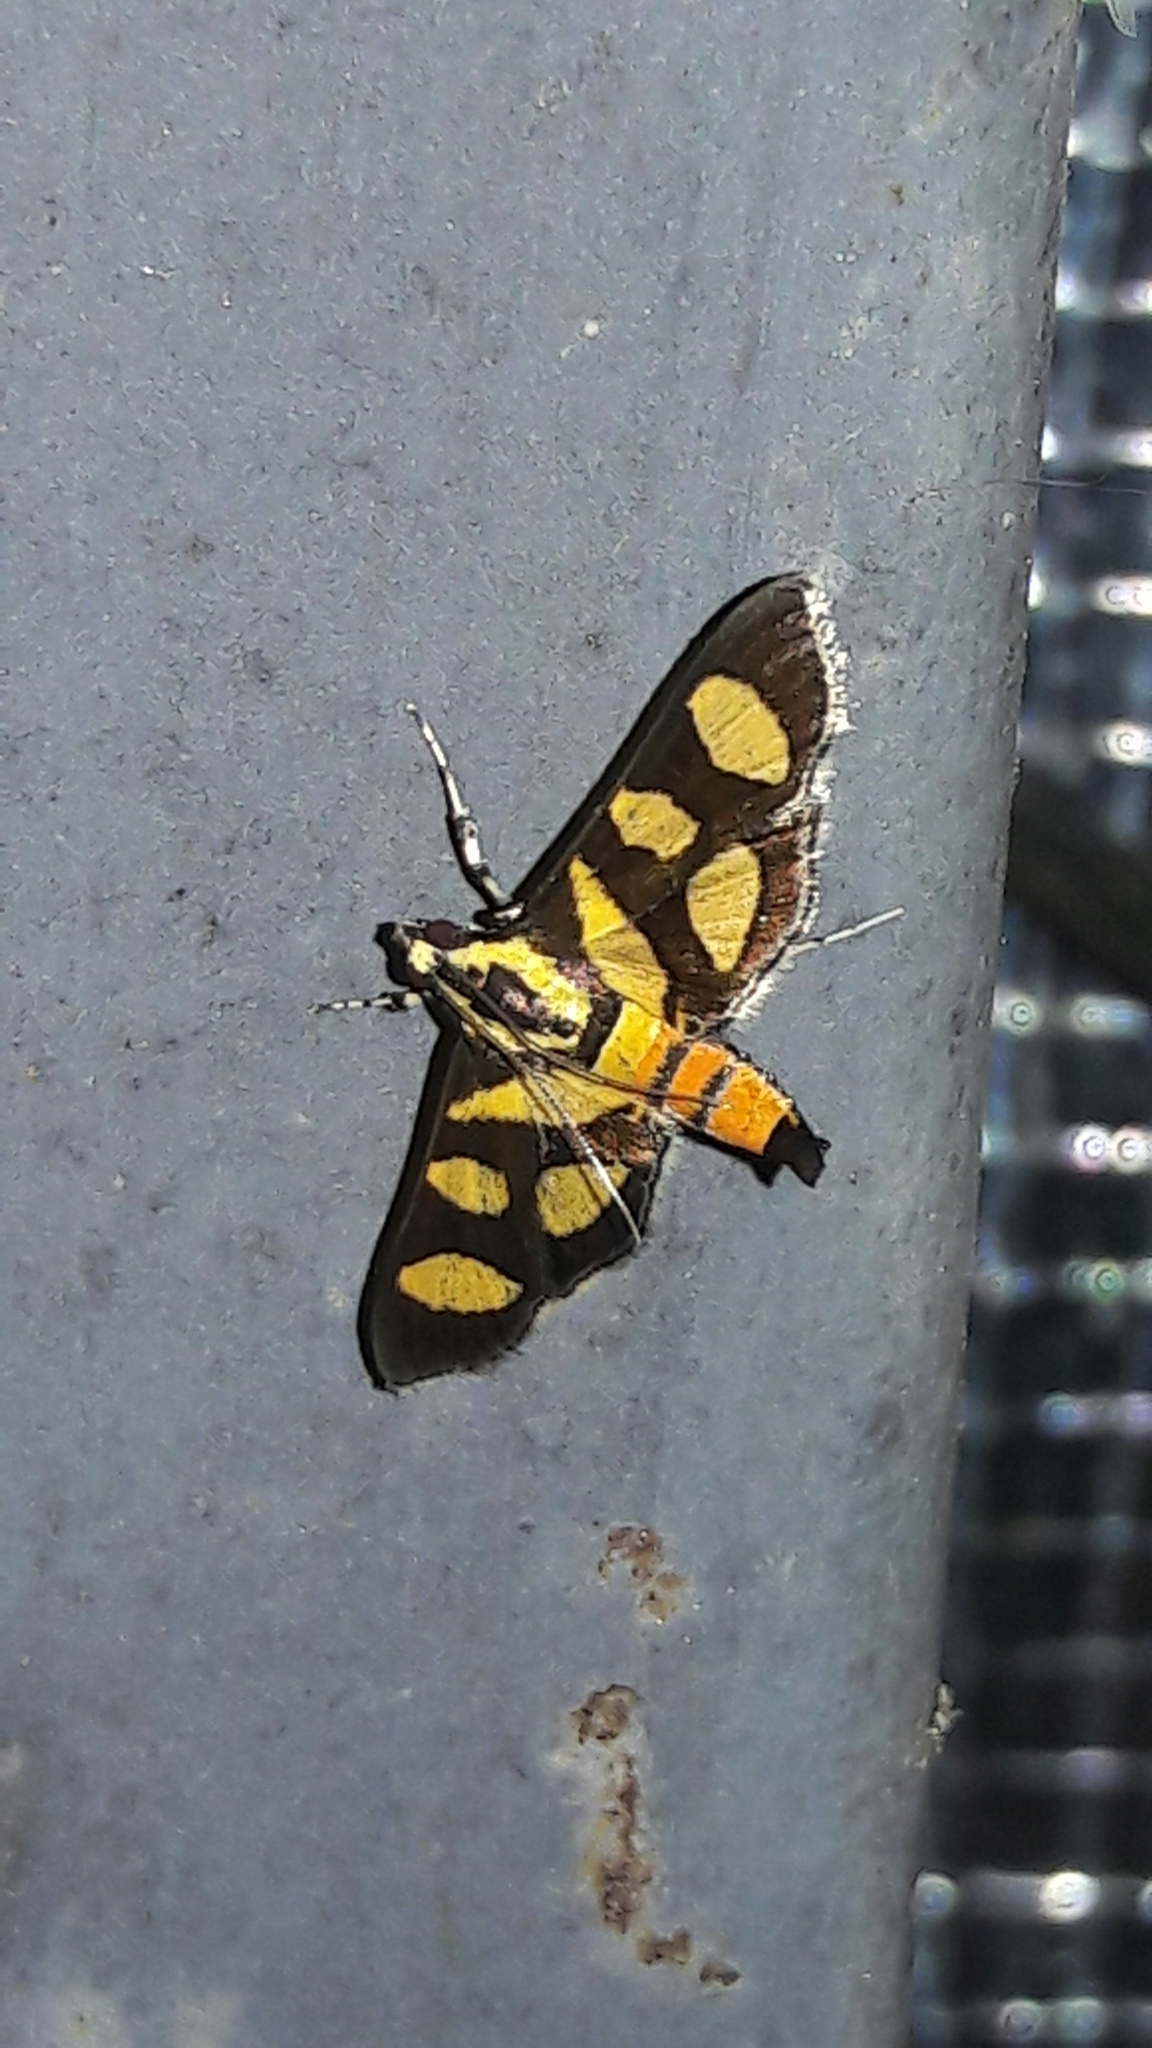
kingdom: Animalia
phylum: Arthropoda
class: Insecta
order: Lepidoptera
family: Crambidae
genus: Syngamia
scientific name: Syngamia florella
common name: Orange-spotted flower moth
